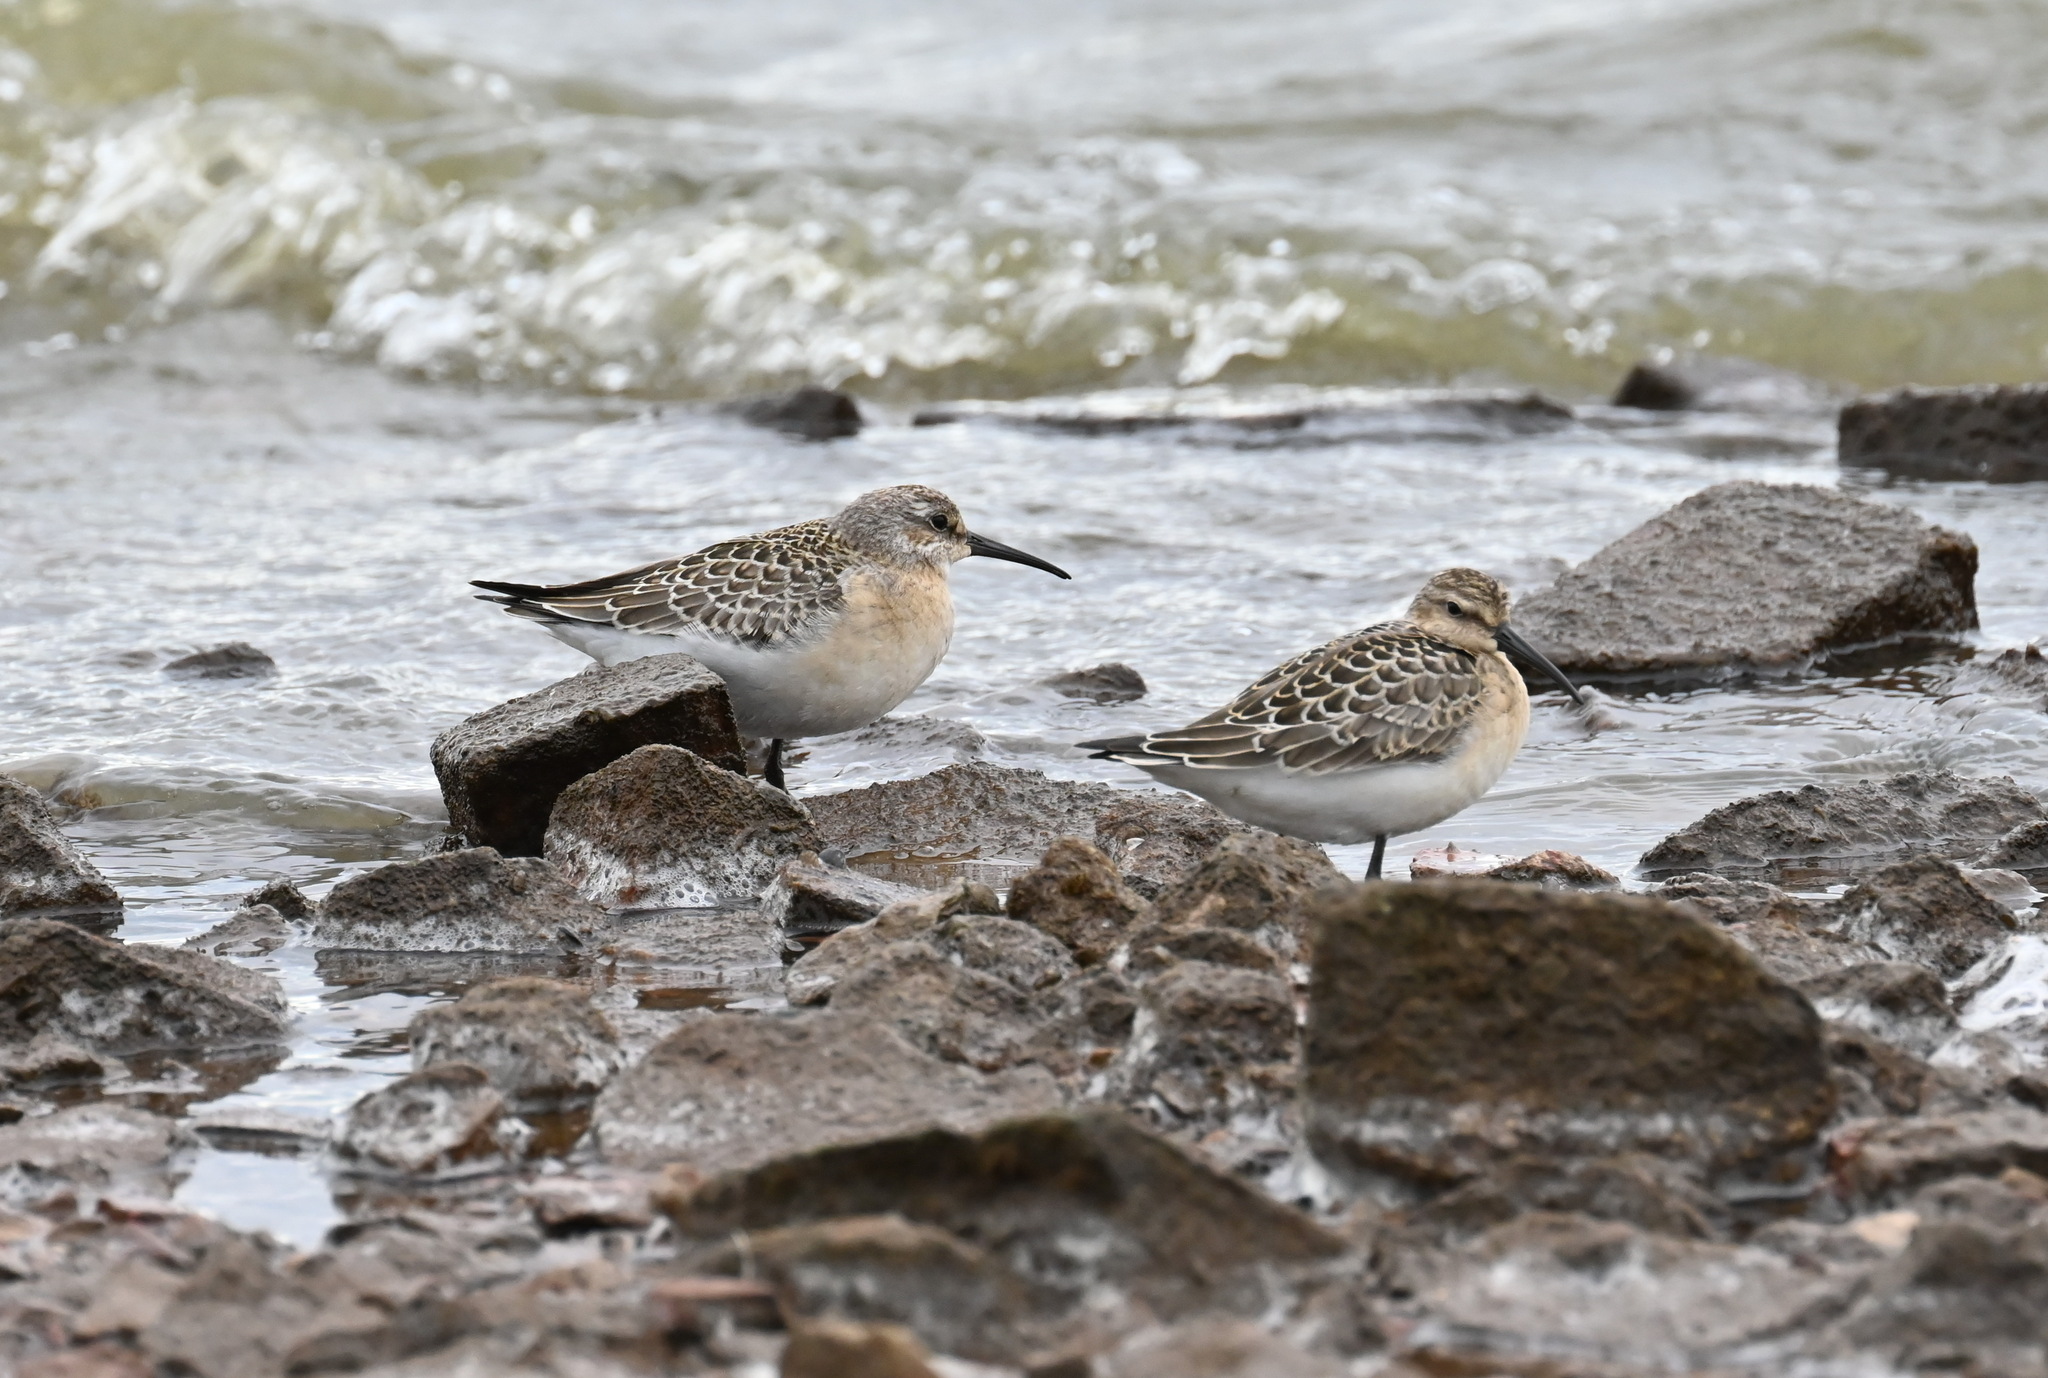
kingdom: Animalia
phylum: Chordata
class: Aves
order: Charadriiformes
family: Scolopacidae
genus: Calidris
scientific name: Calidris ferruginea
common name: Curlew sandpiper
